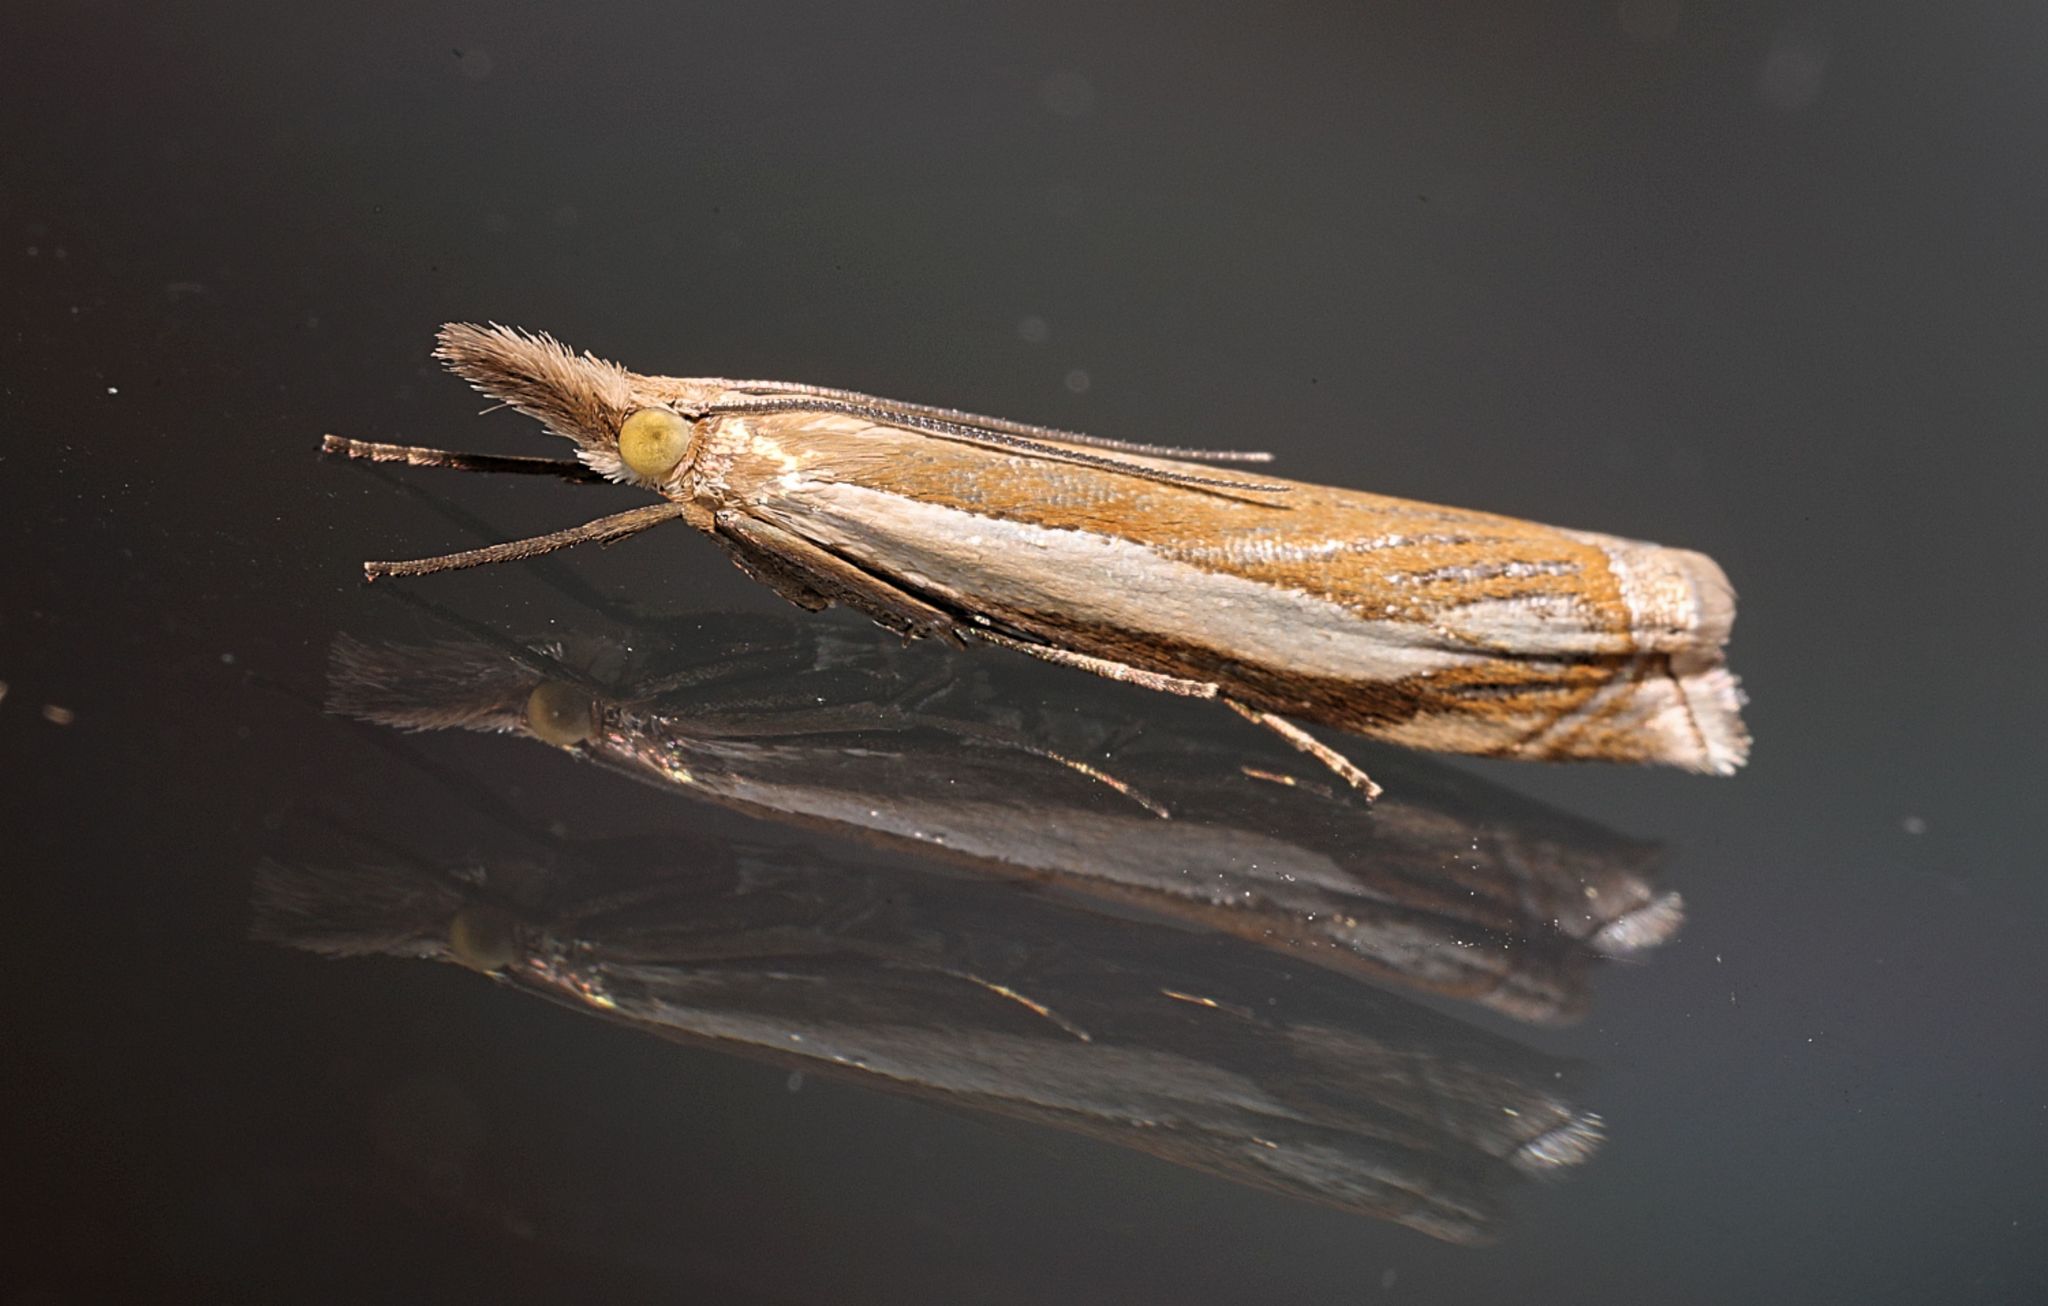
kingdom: Animalia
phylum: Arthropoda
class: Insecta
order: Lepidoptera
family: Crambidae
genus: Crambus
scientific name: Crambus pascuella
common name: Inlaid grass-veneer
